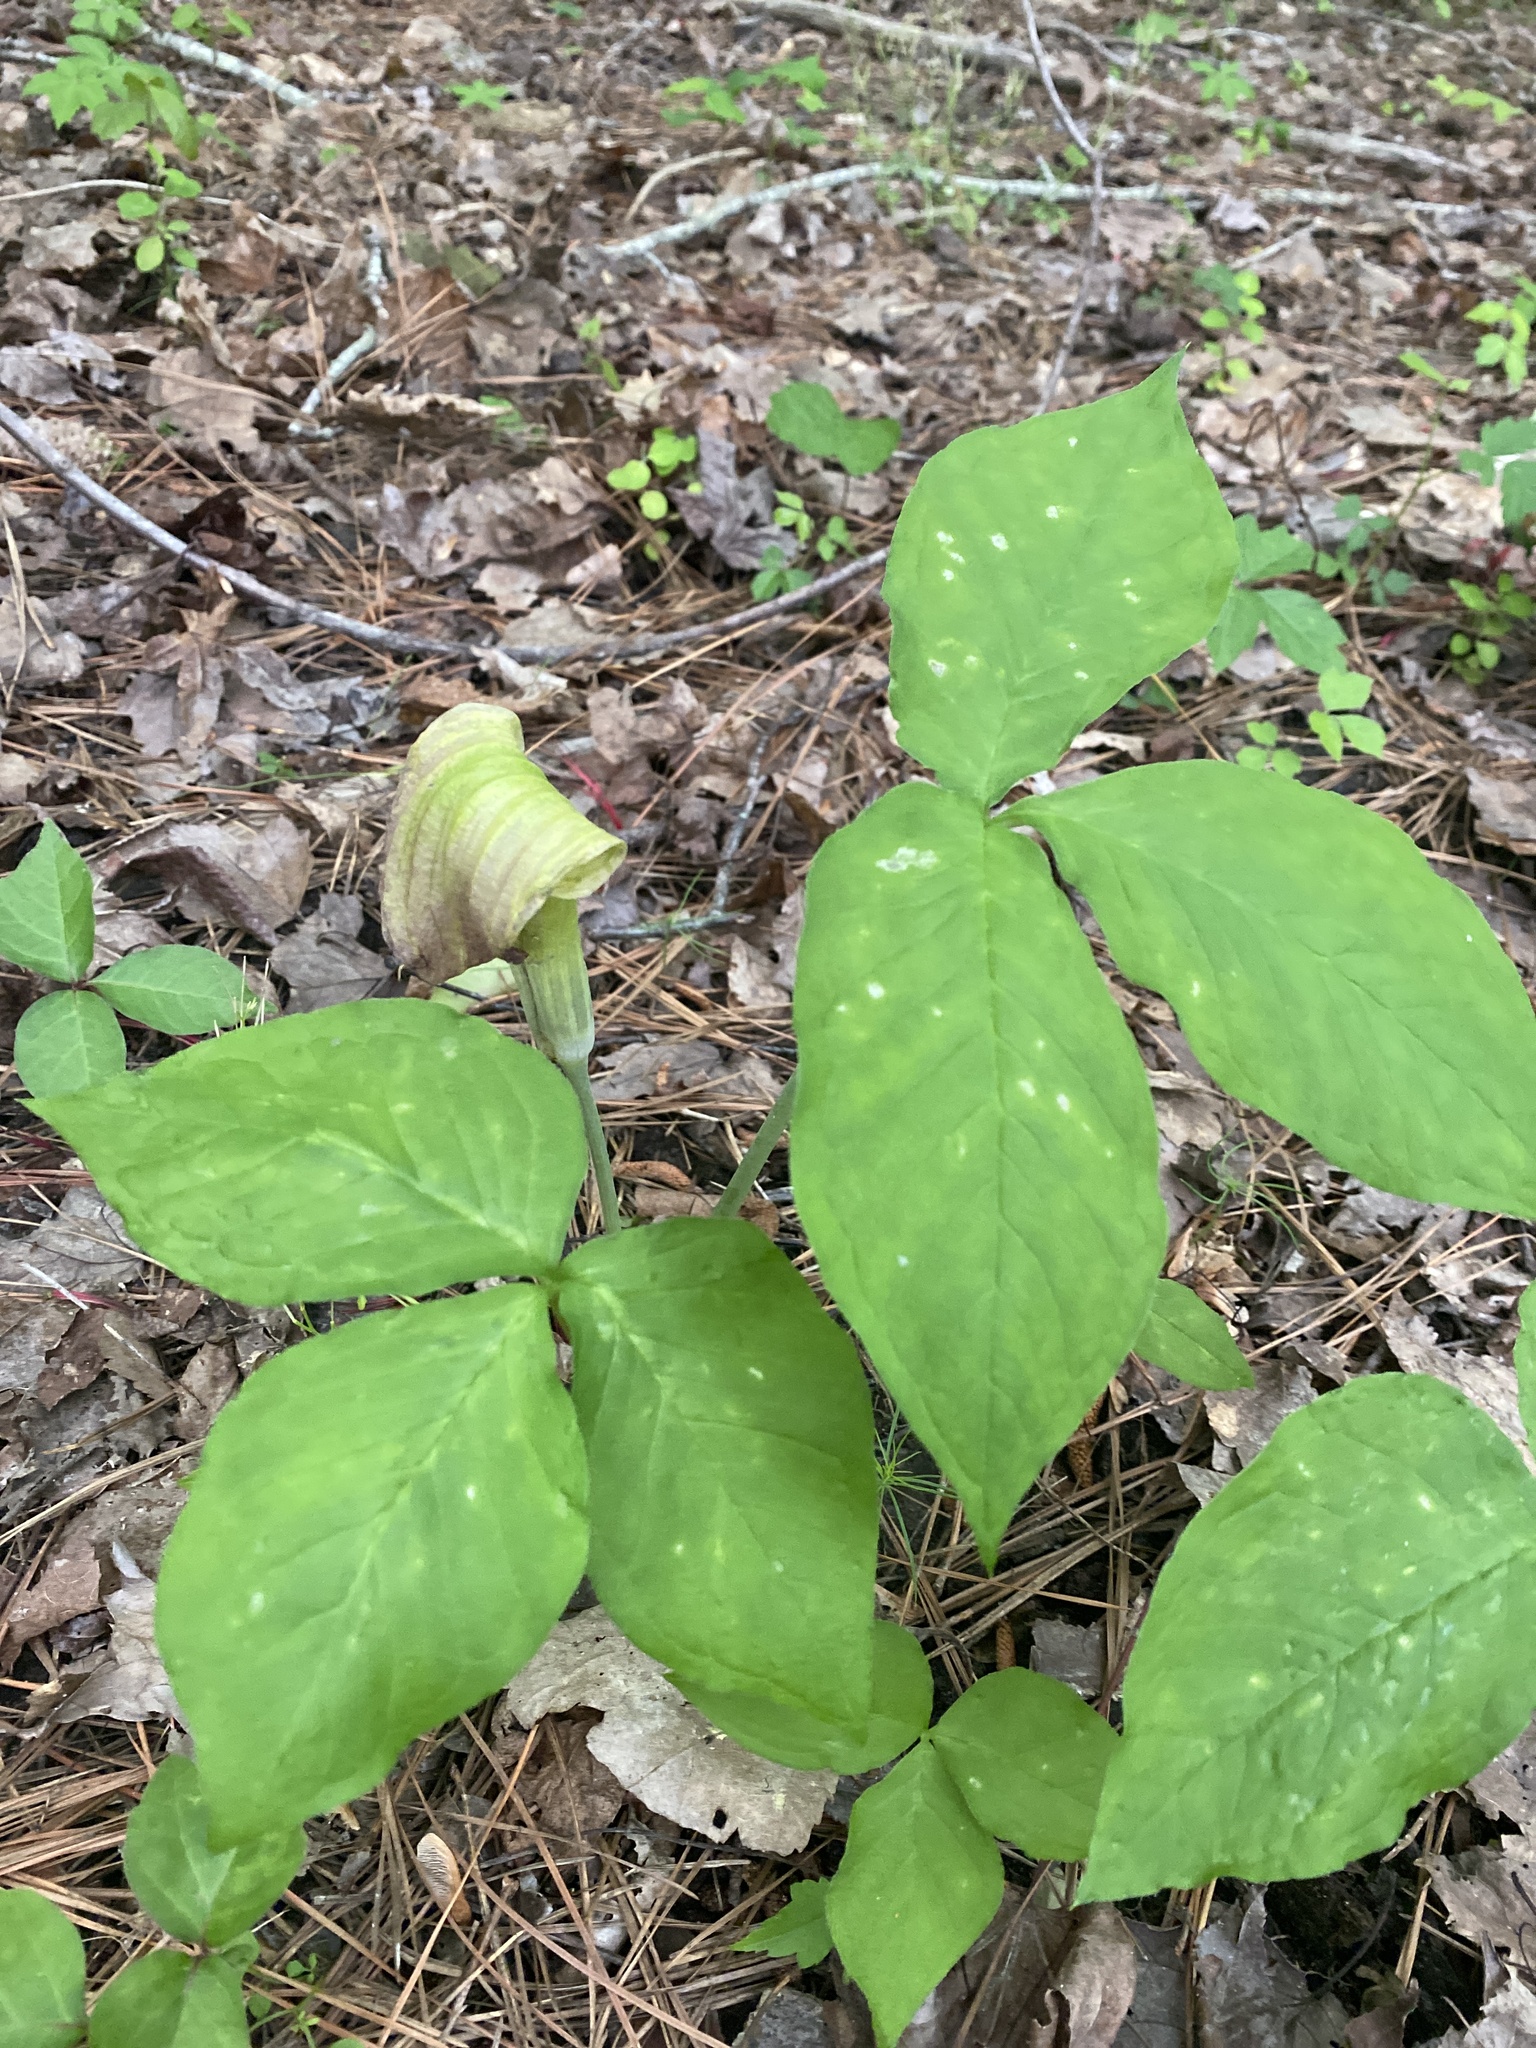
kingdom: Plantae
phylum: Tracheophyta
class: Liliopsida
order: Alismatales
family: Araceae
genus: Arisaema
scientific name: Arisaema triphyllum
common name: Jack-in-the-pulpit
